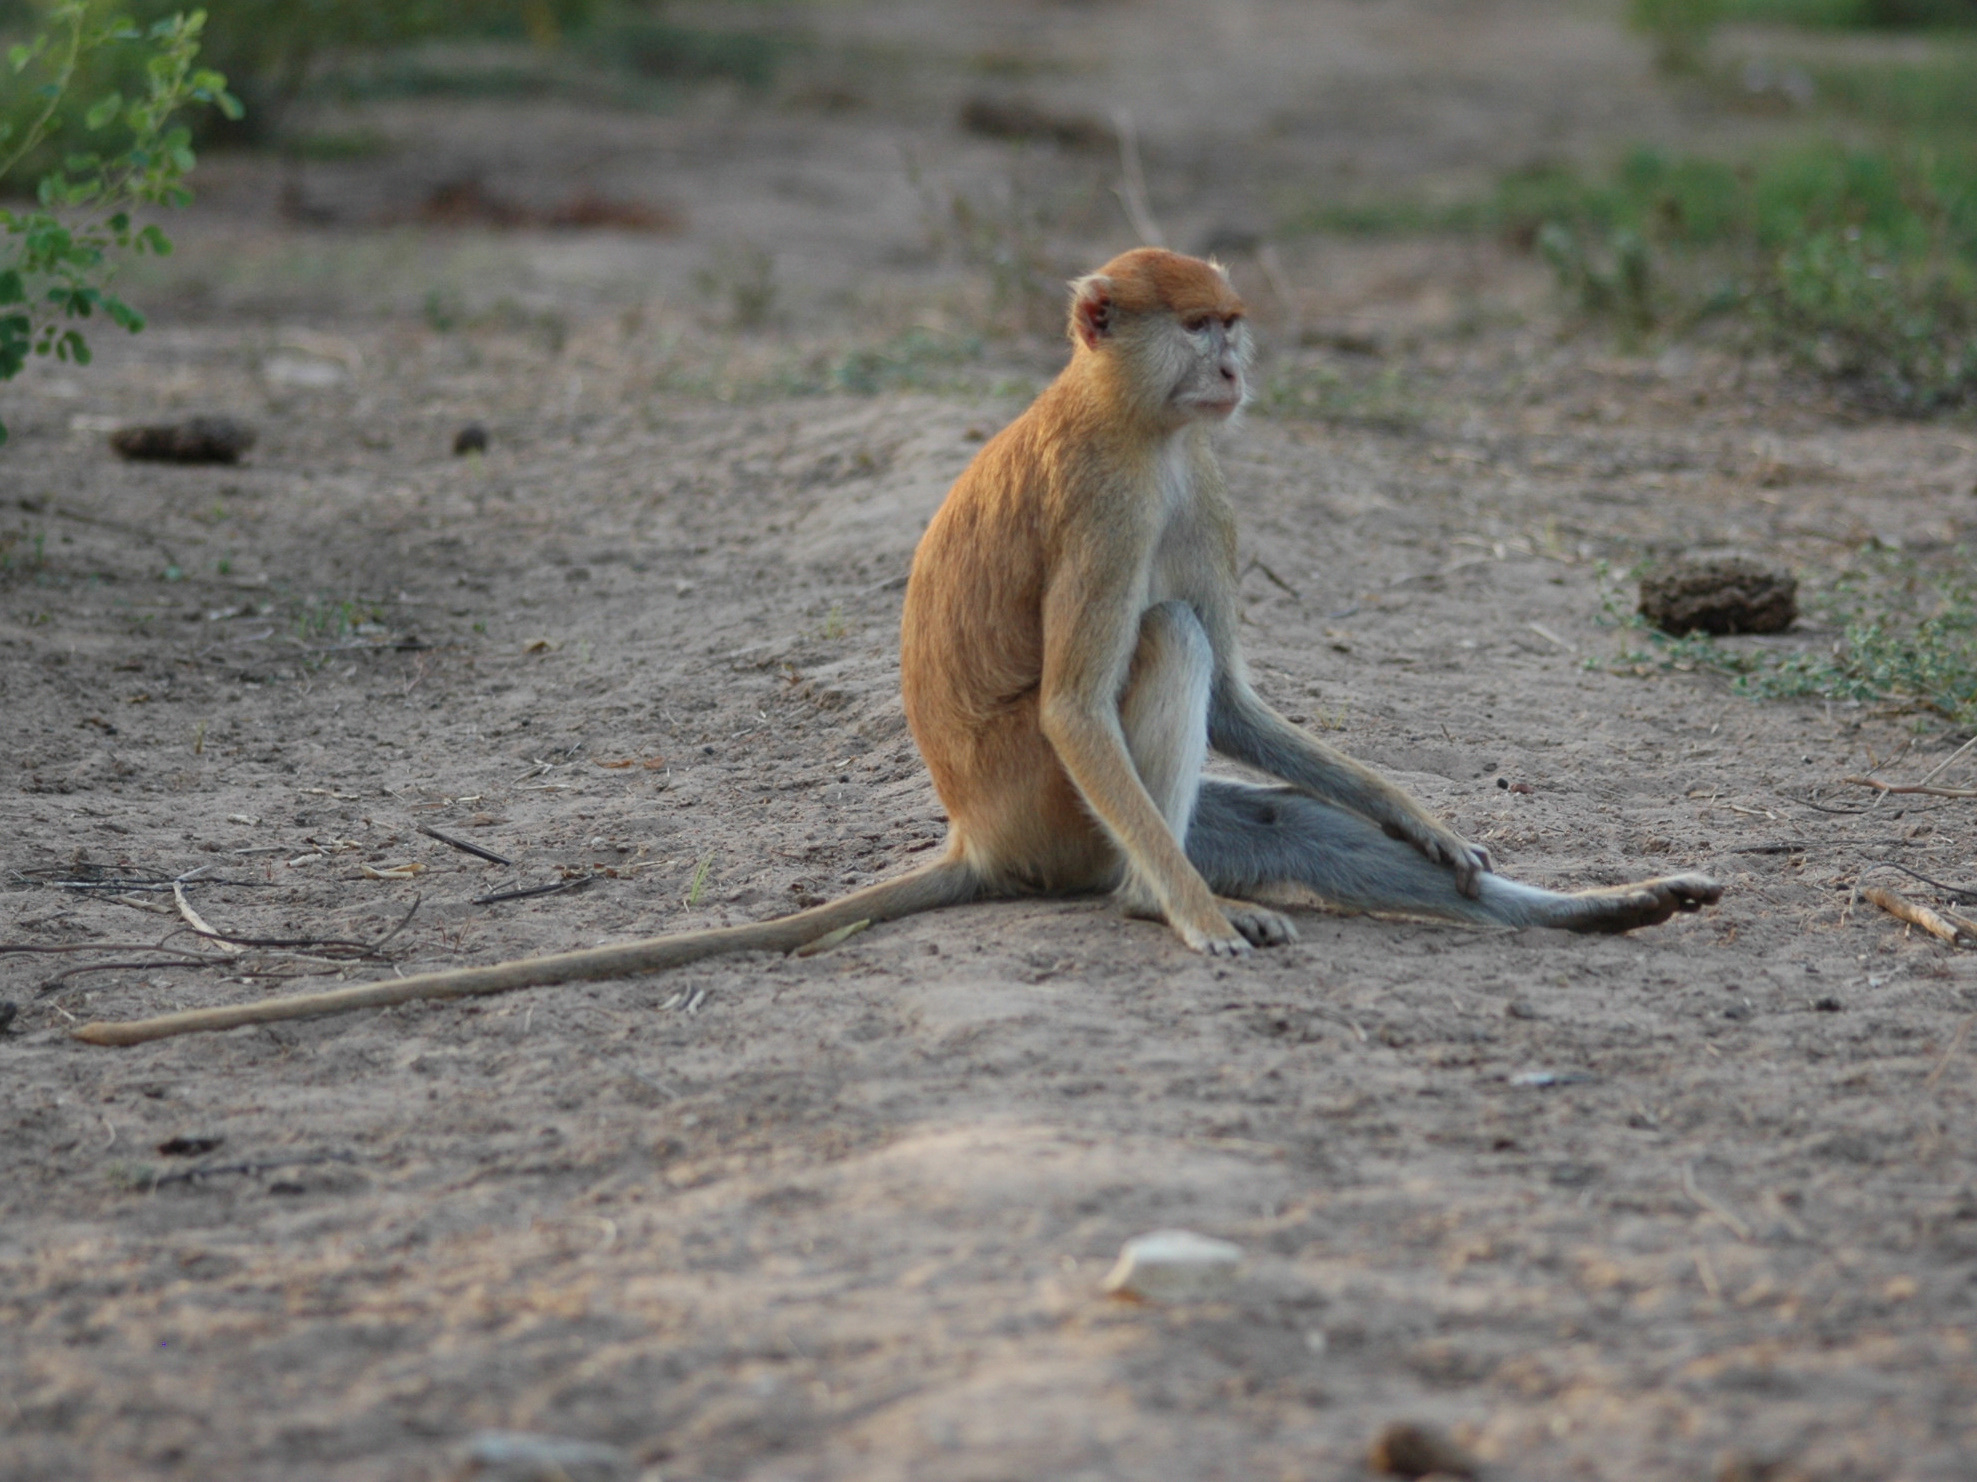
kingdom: Animalia
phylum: Chordata
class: Mammalia
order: Primates
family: Cercopithecidae
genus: Erythrocebus
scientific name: Erythrocebus patas
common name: Patas monkey
